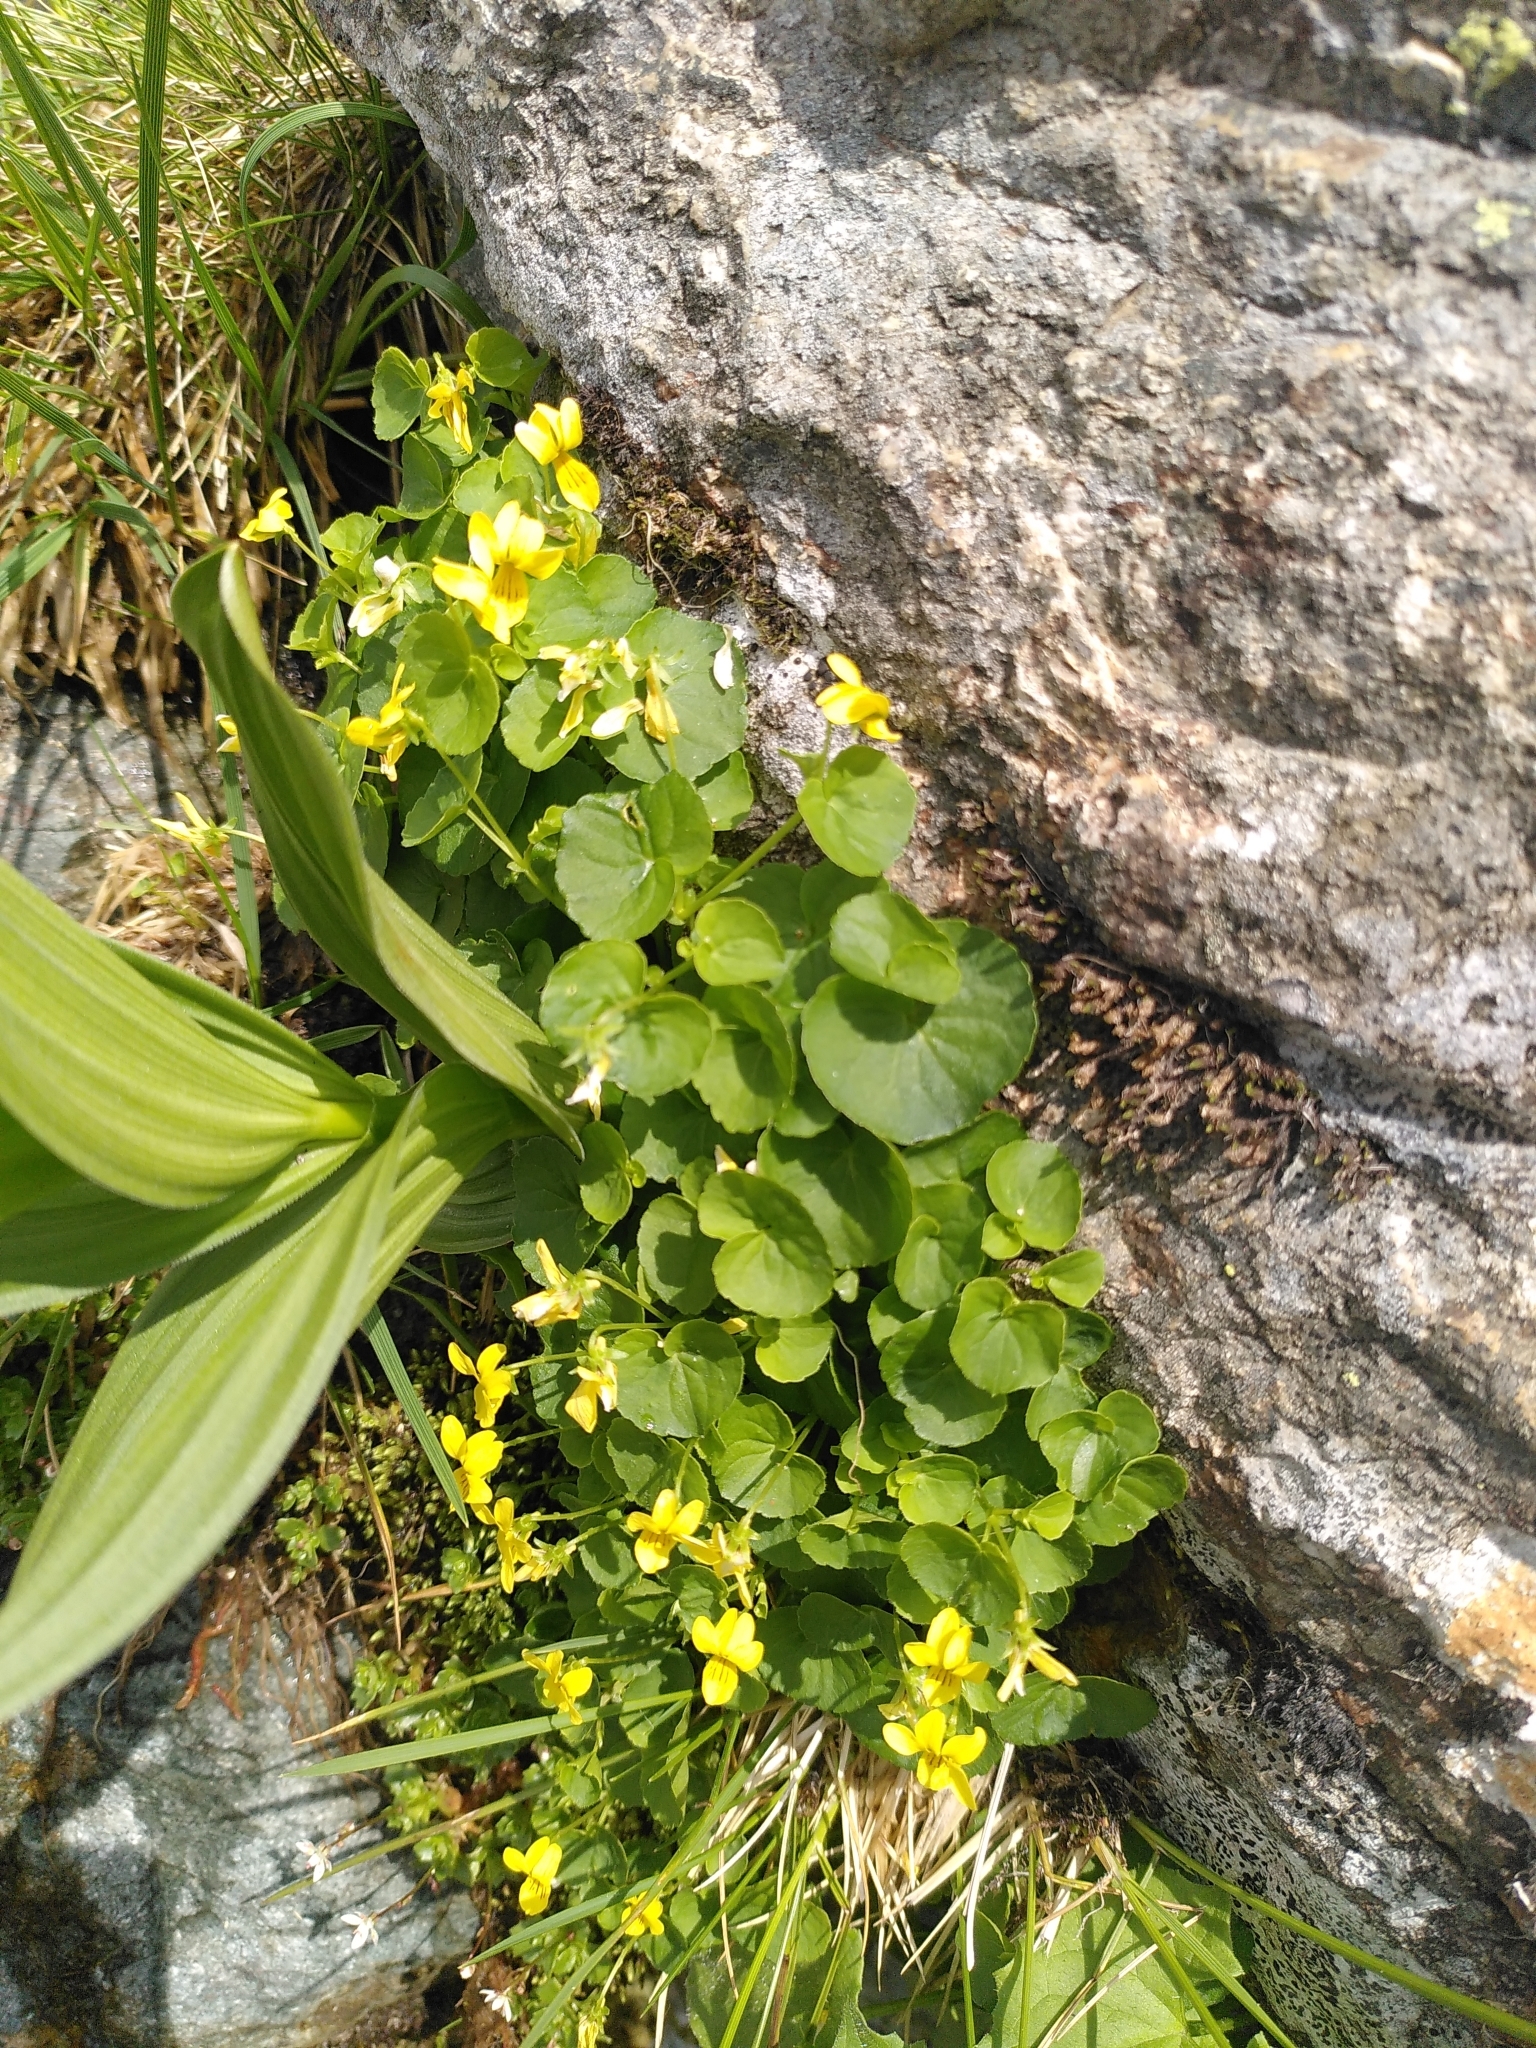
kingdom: Plantae
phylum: Tracheophyta
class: Magnoliopsida
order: Malpighiales
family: Violaceae
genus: Viola
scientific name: Viola biflora
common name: Alpine yellow violet
